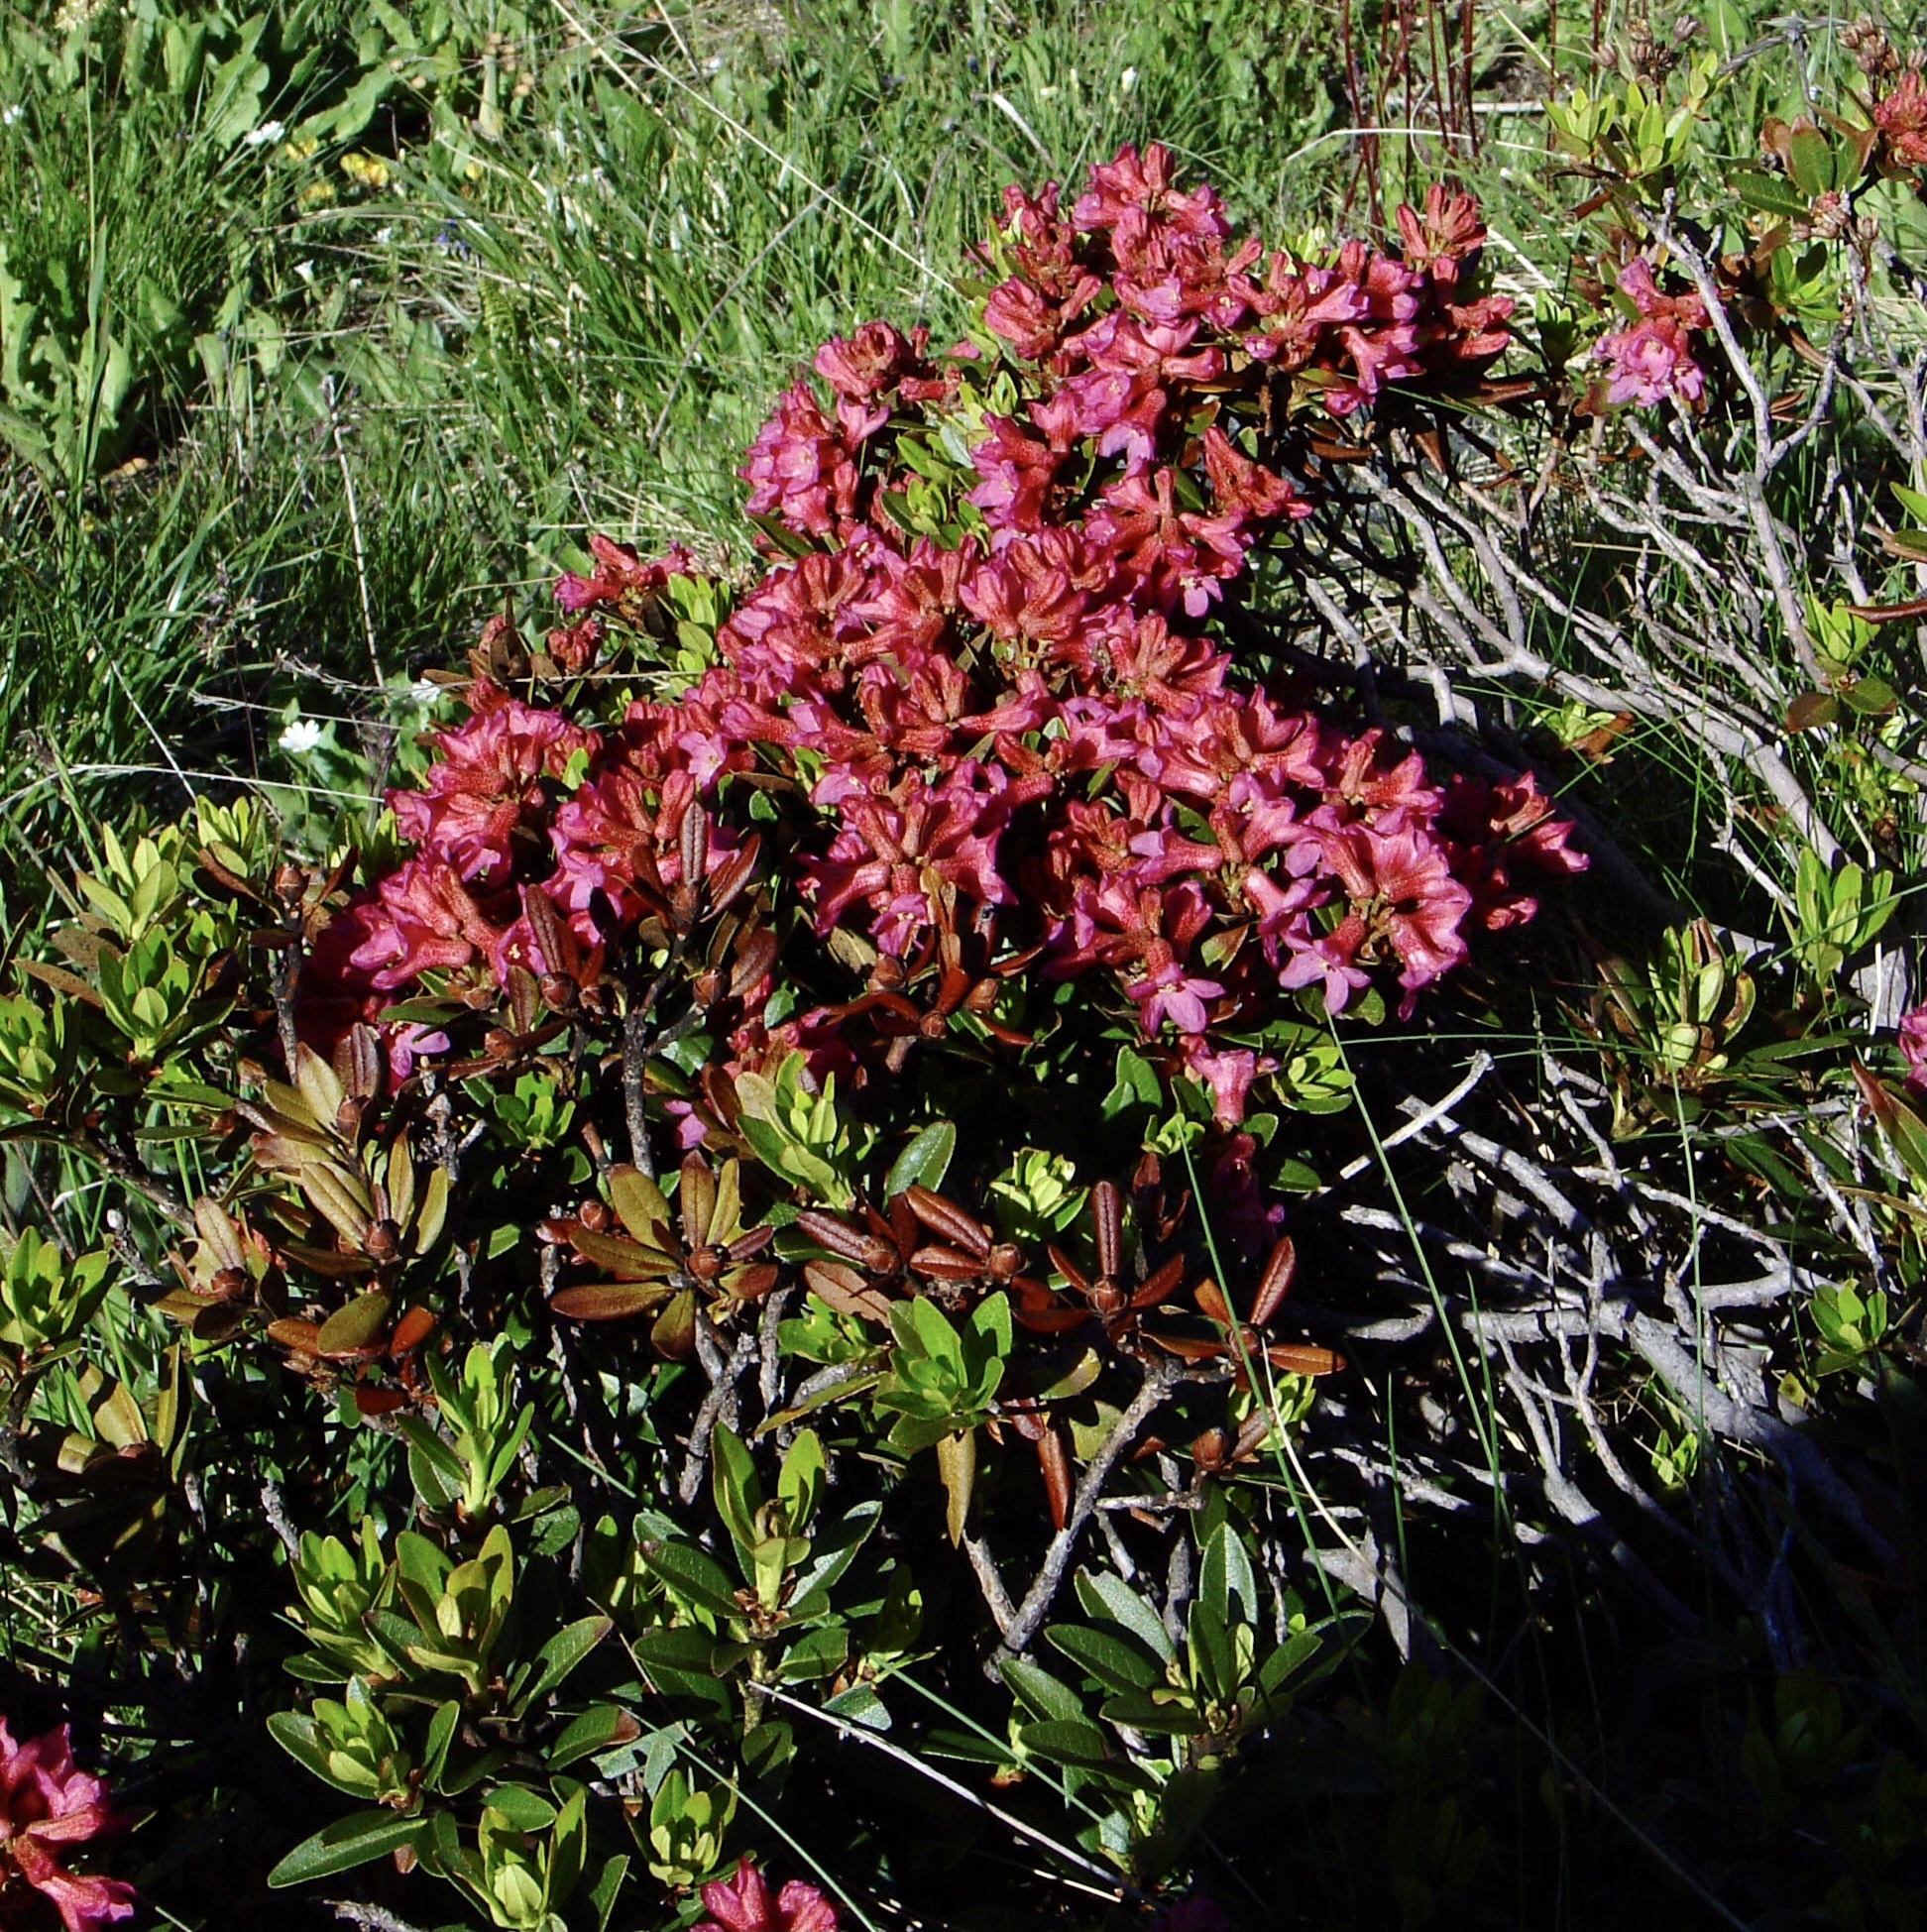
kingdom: Plantae
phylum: Tracheophyta
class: Magnoliopsida
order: Ericales
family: Ericaceae
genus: Rhododendron
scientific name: Rhododendron ferrugineum
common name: Alpenrose
